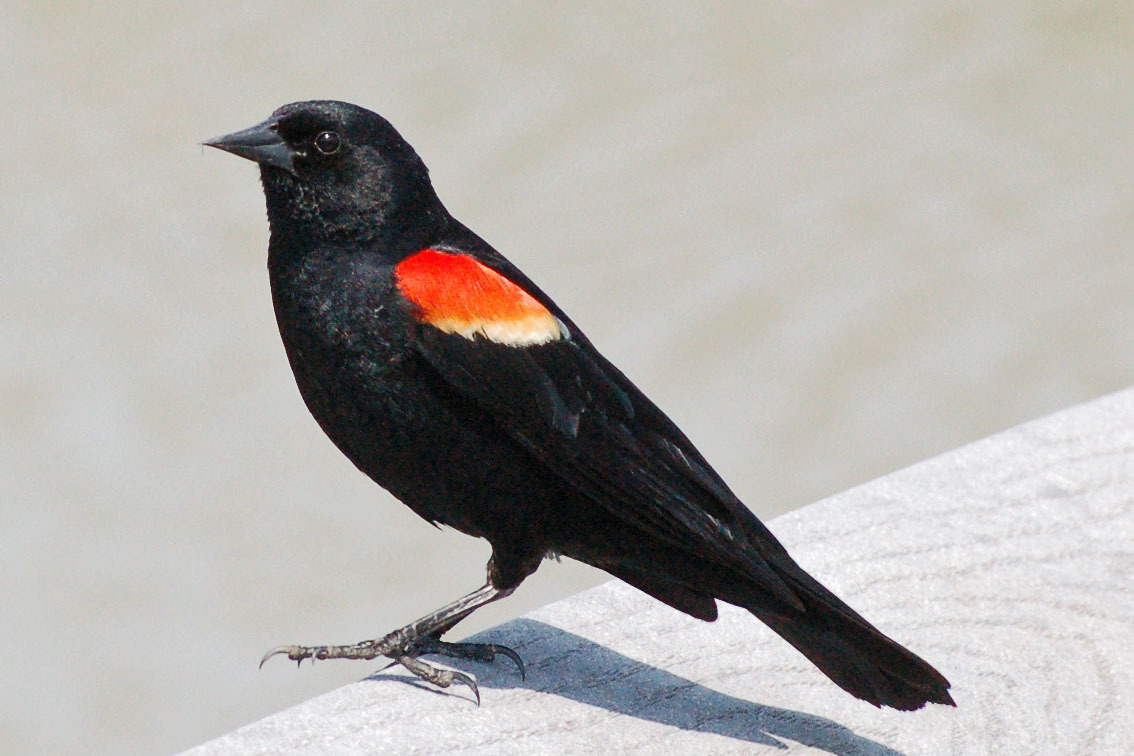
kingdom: Animalia
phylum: Chordata
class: Aves
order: Passeriformes
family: Icteridae
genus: Agelaius
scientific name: Agelaius phoeniceus
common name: Red-winged blackbird
